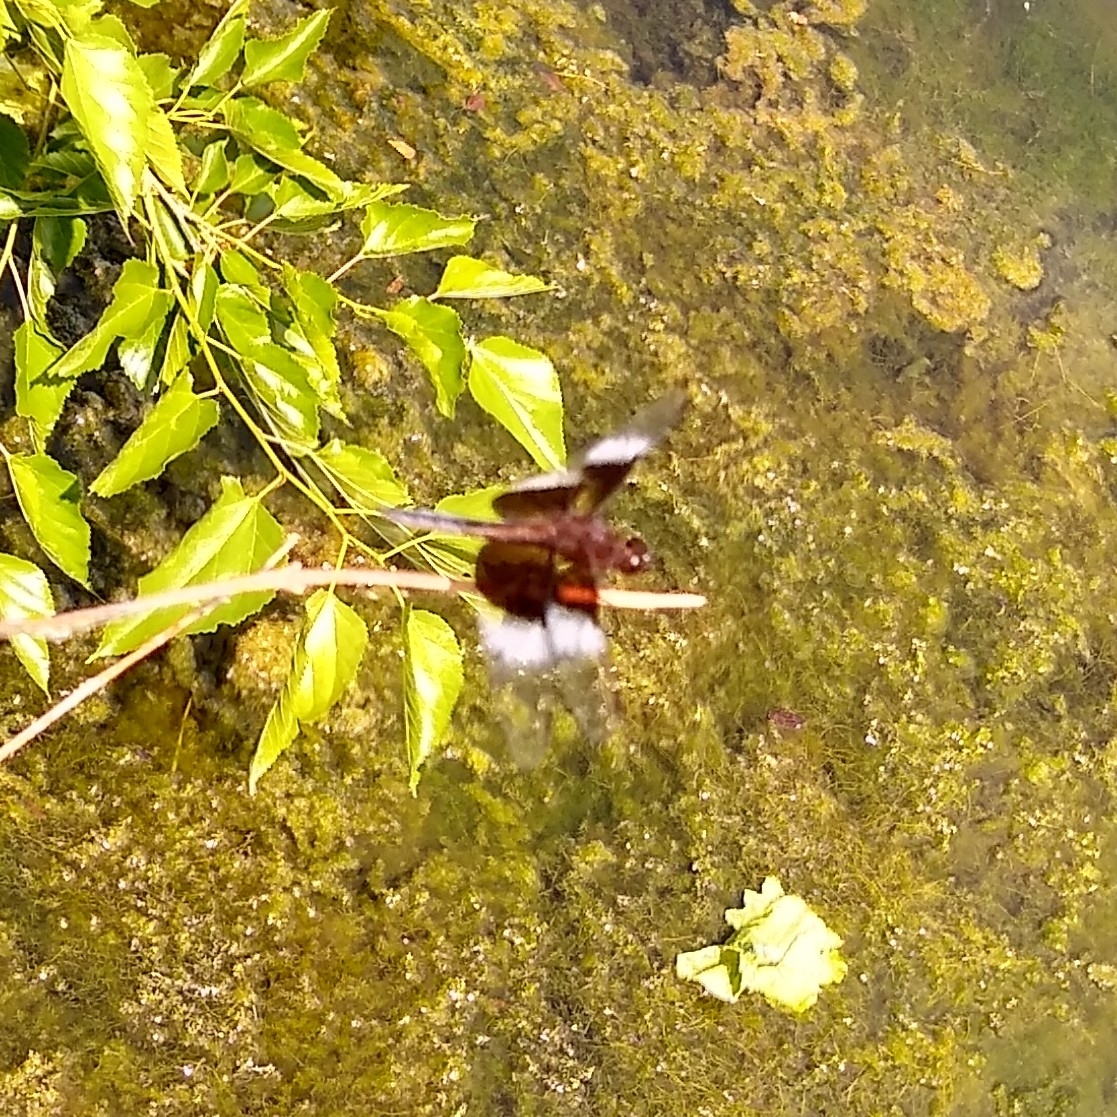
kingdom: Animalia
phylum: Arthropoda
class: Insecta
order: Odonata
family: Libellulidae
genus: Libellula
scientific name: Libellula luctuosa
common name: Widow skimmer
